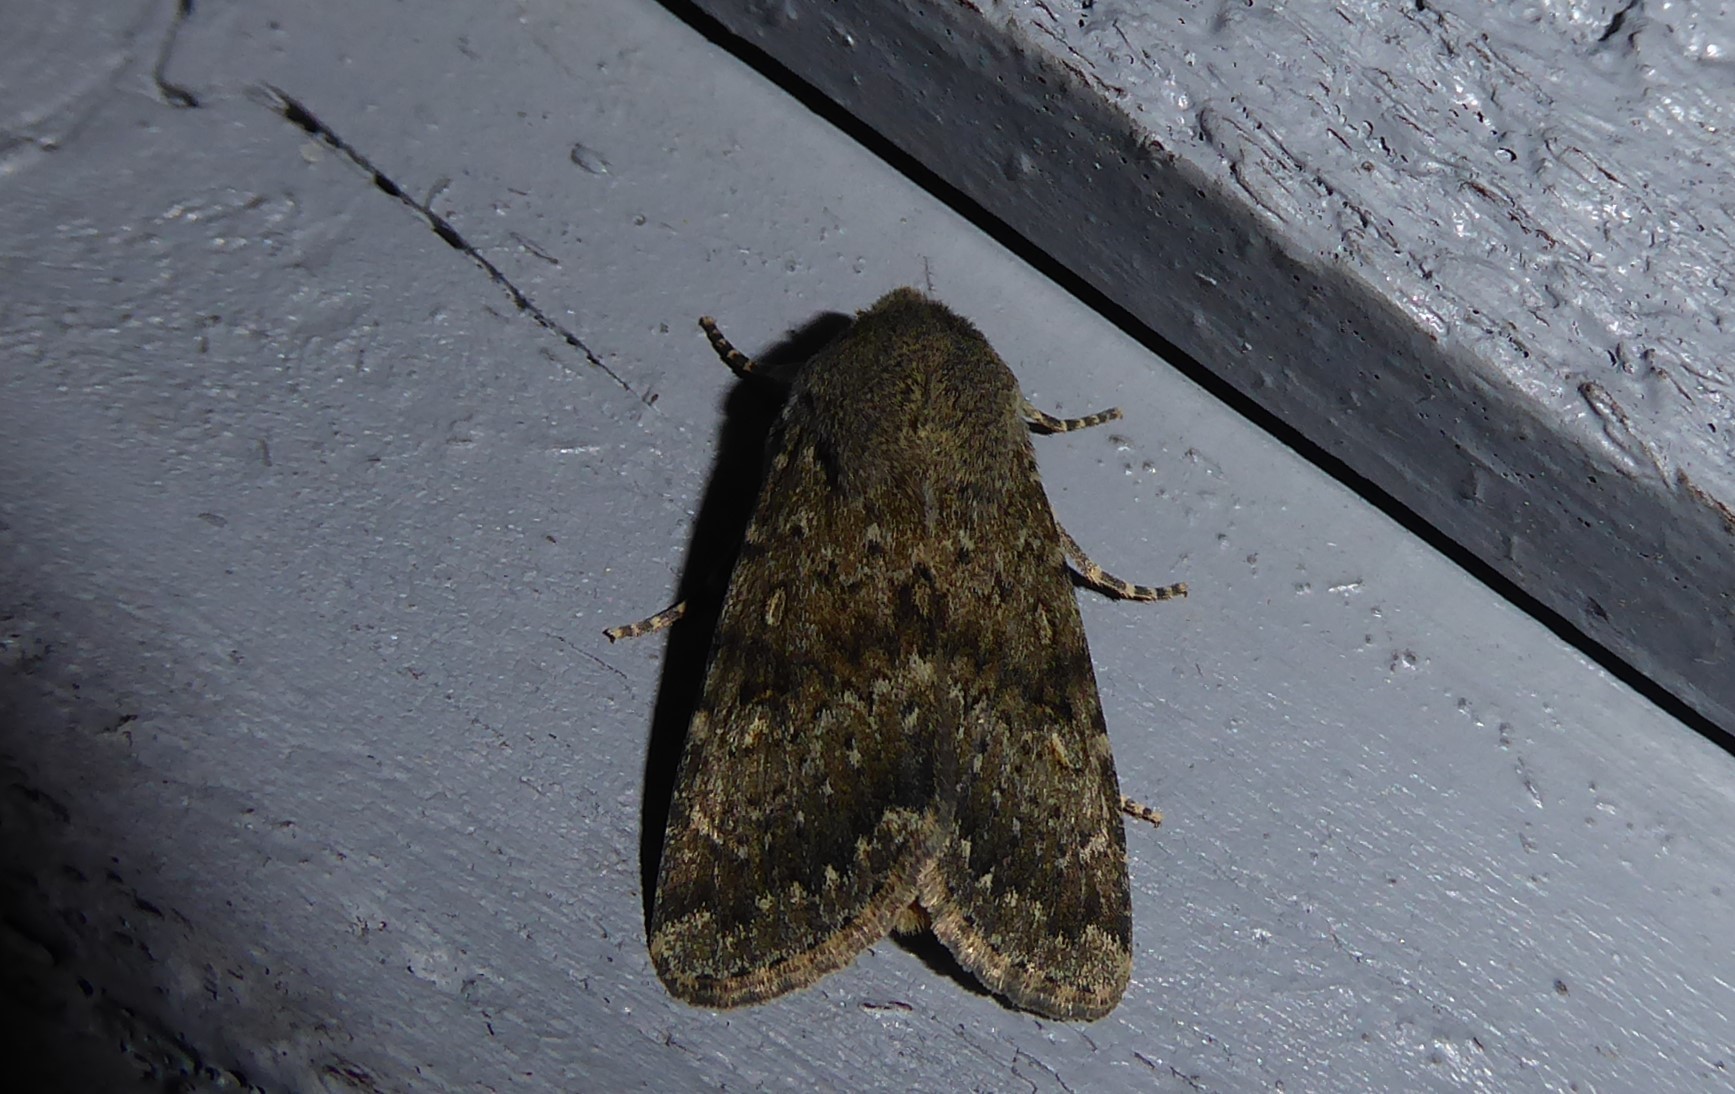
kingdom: Animalia
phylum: Arthropoda
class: Insecta
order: Lepidoptera
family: Noctuidae
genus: Ichneutica
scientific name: Ichneutica moderata
